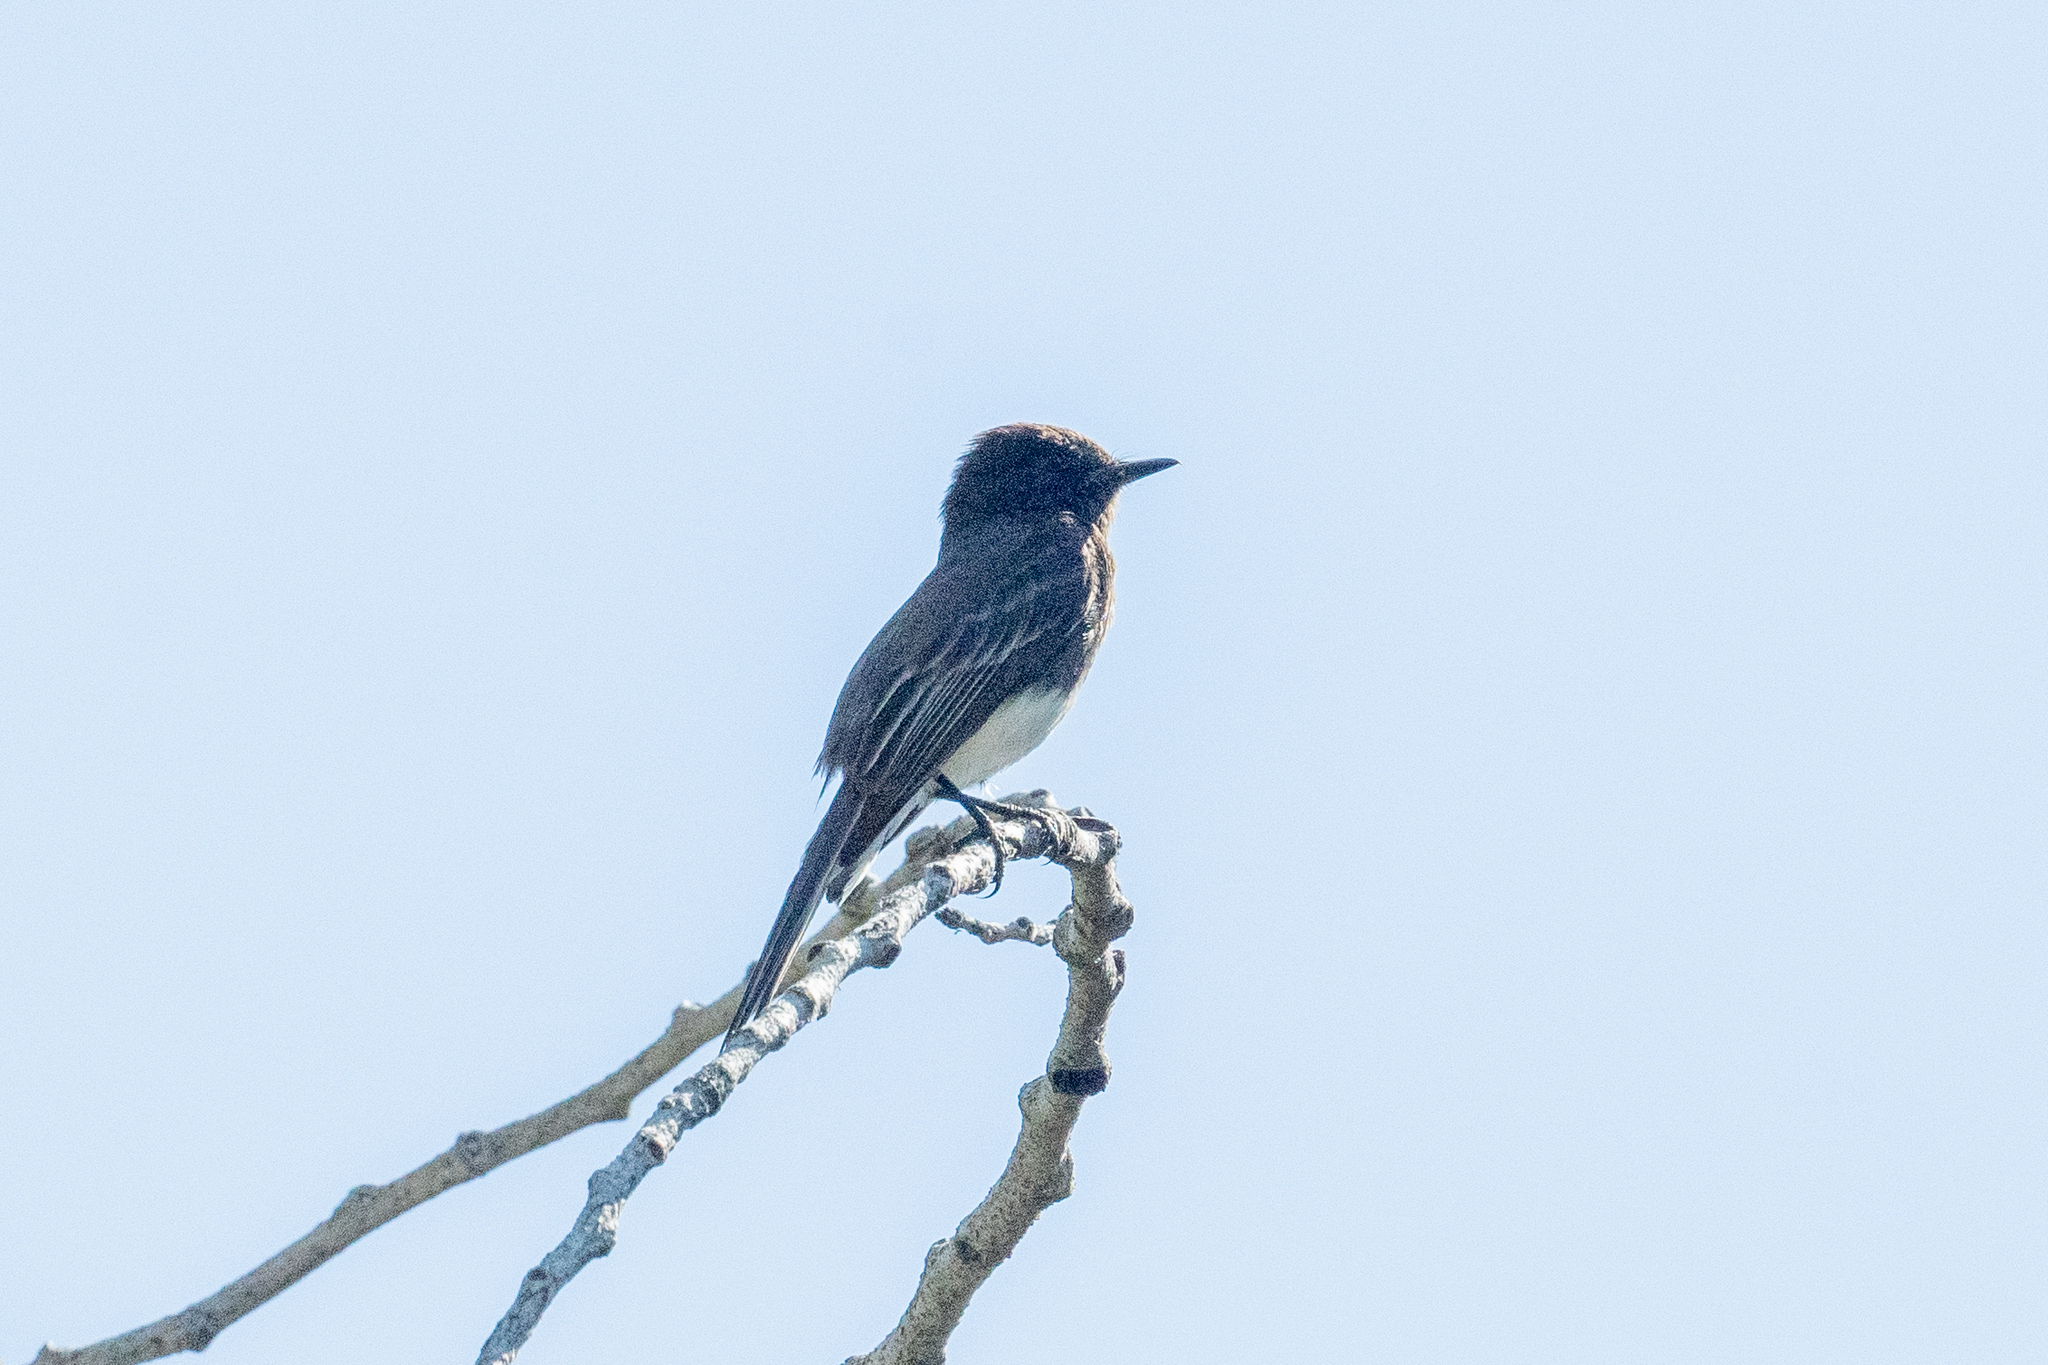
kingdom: Animalia
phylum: Chordata
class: Aves
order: Passeriformes
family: Tyrannidae
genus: Sayornis
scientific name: Sayornis nigricans
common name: Black phoebe
